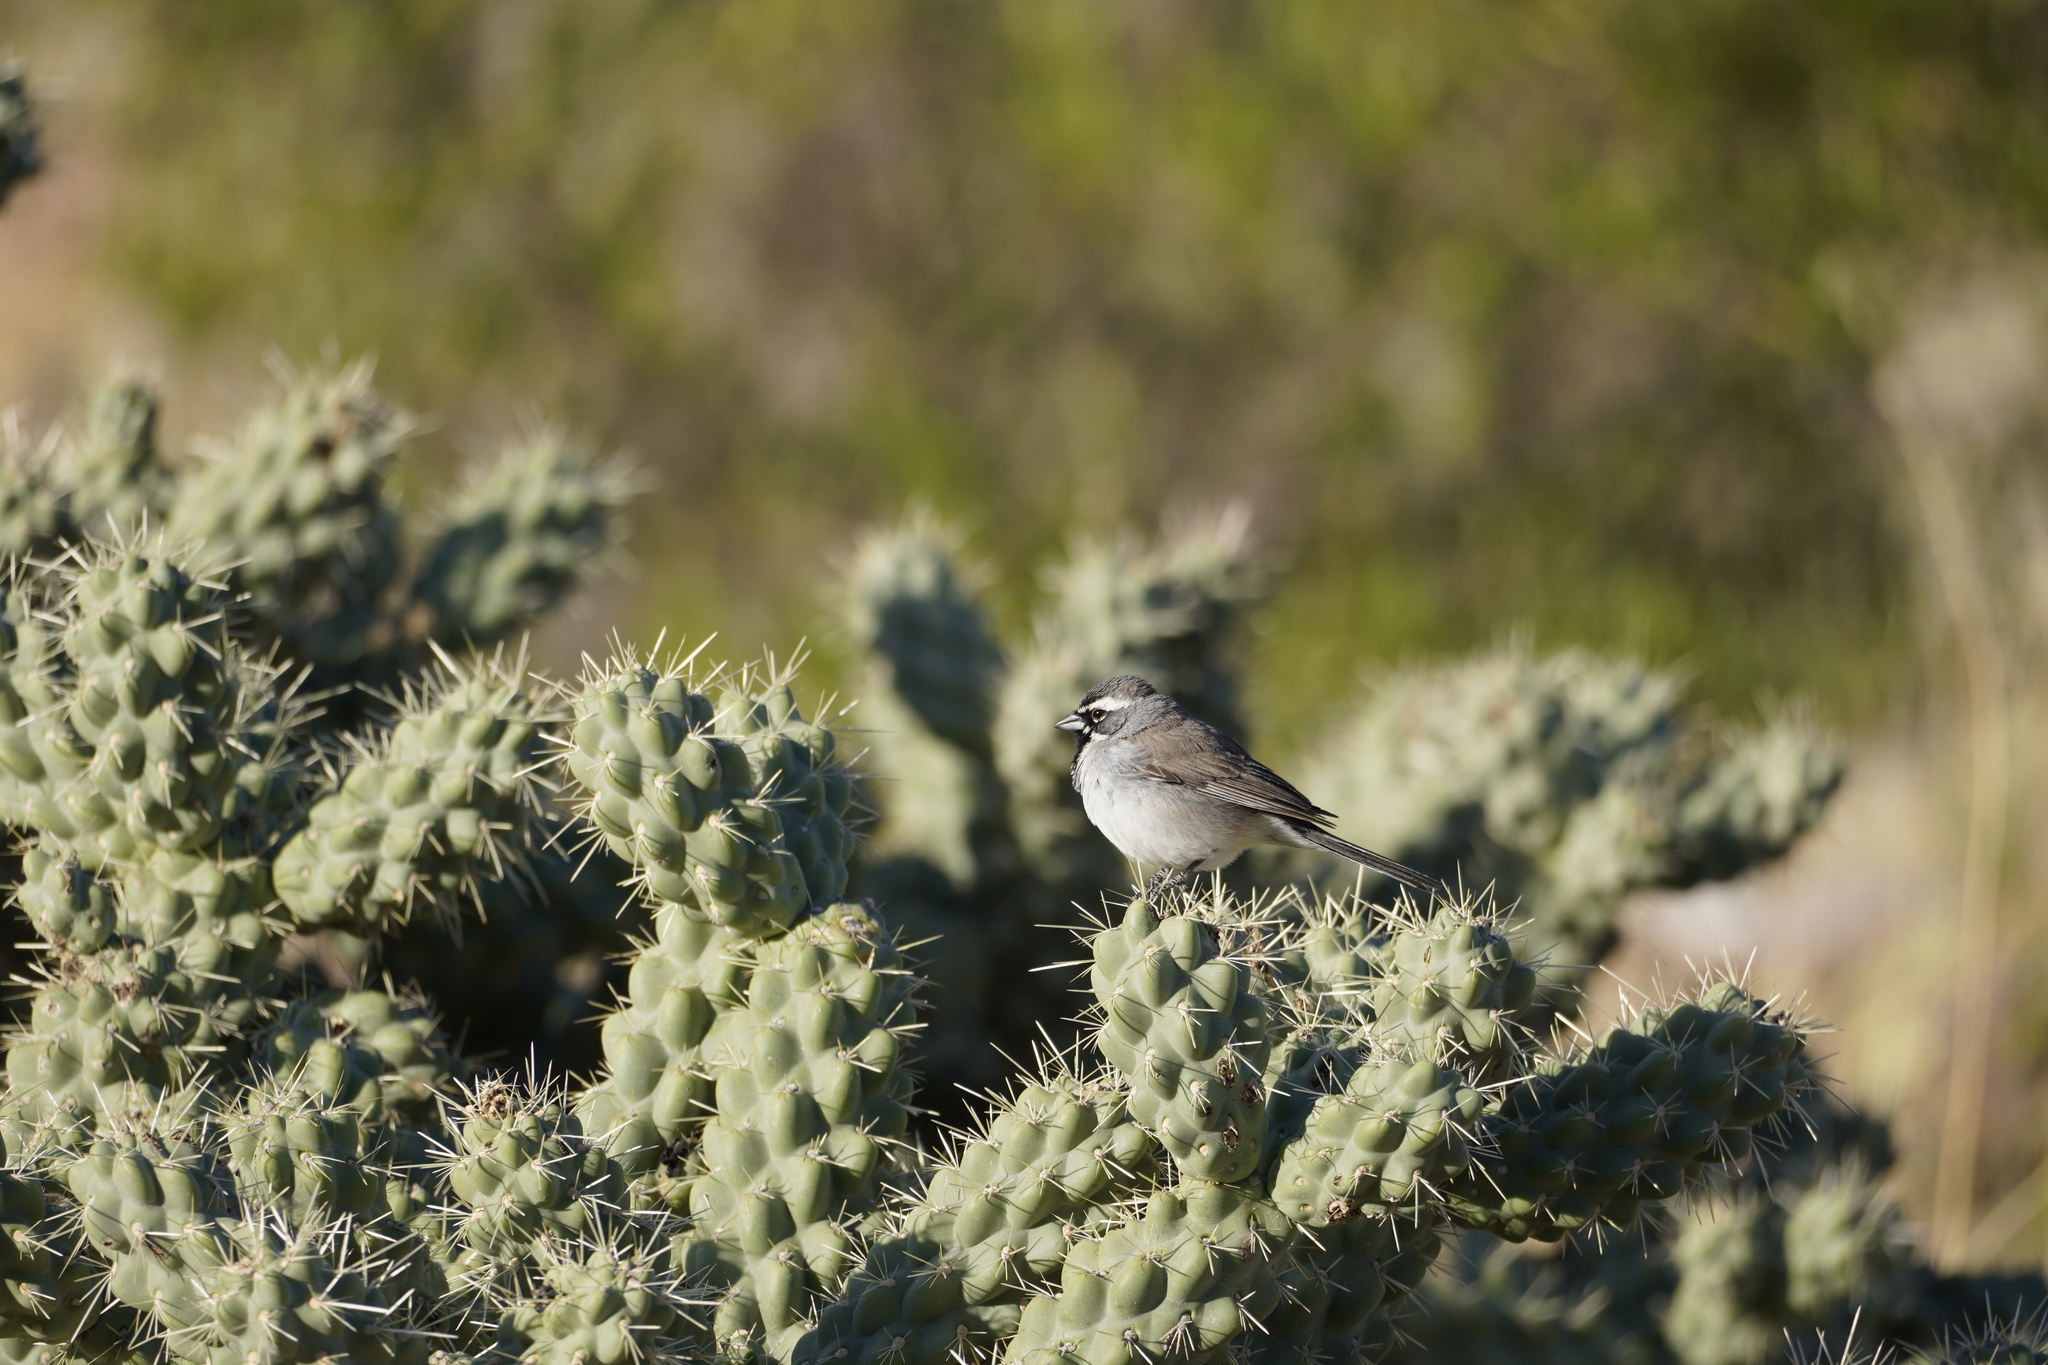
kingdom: Animalia
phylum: Chordata
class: Aves
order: Passeriformes
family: Passerellidae
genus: Amphispiza
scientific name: Amphispiza bilineata
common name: Black-throated sparrow
